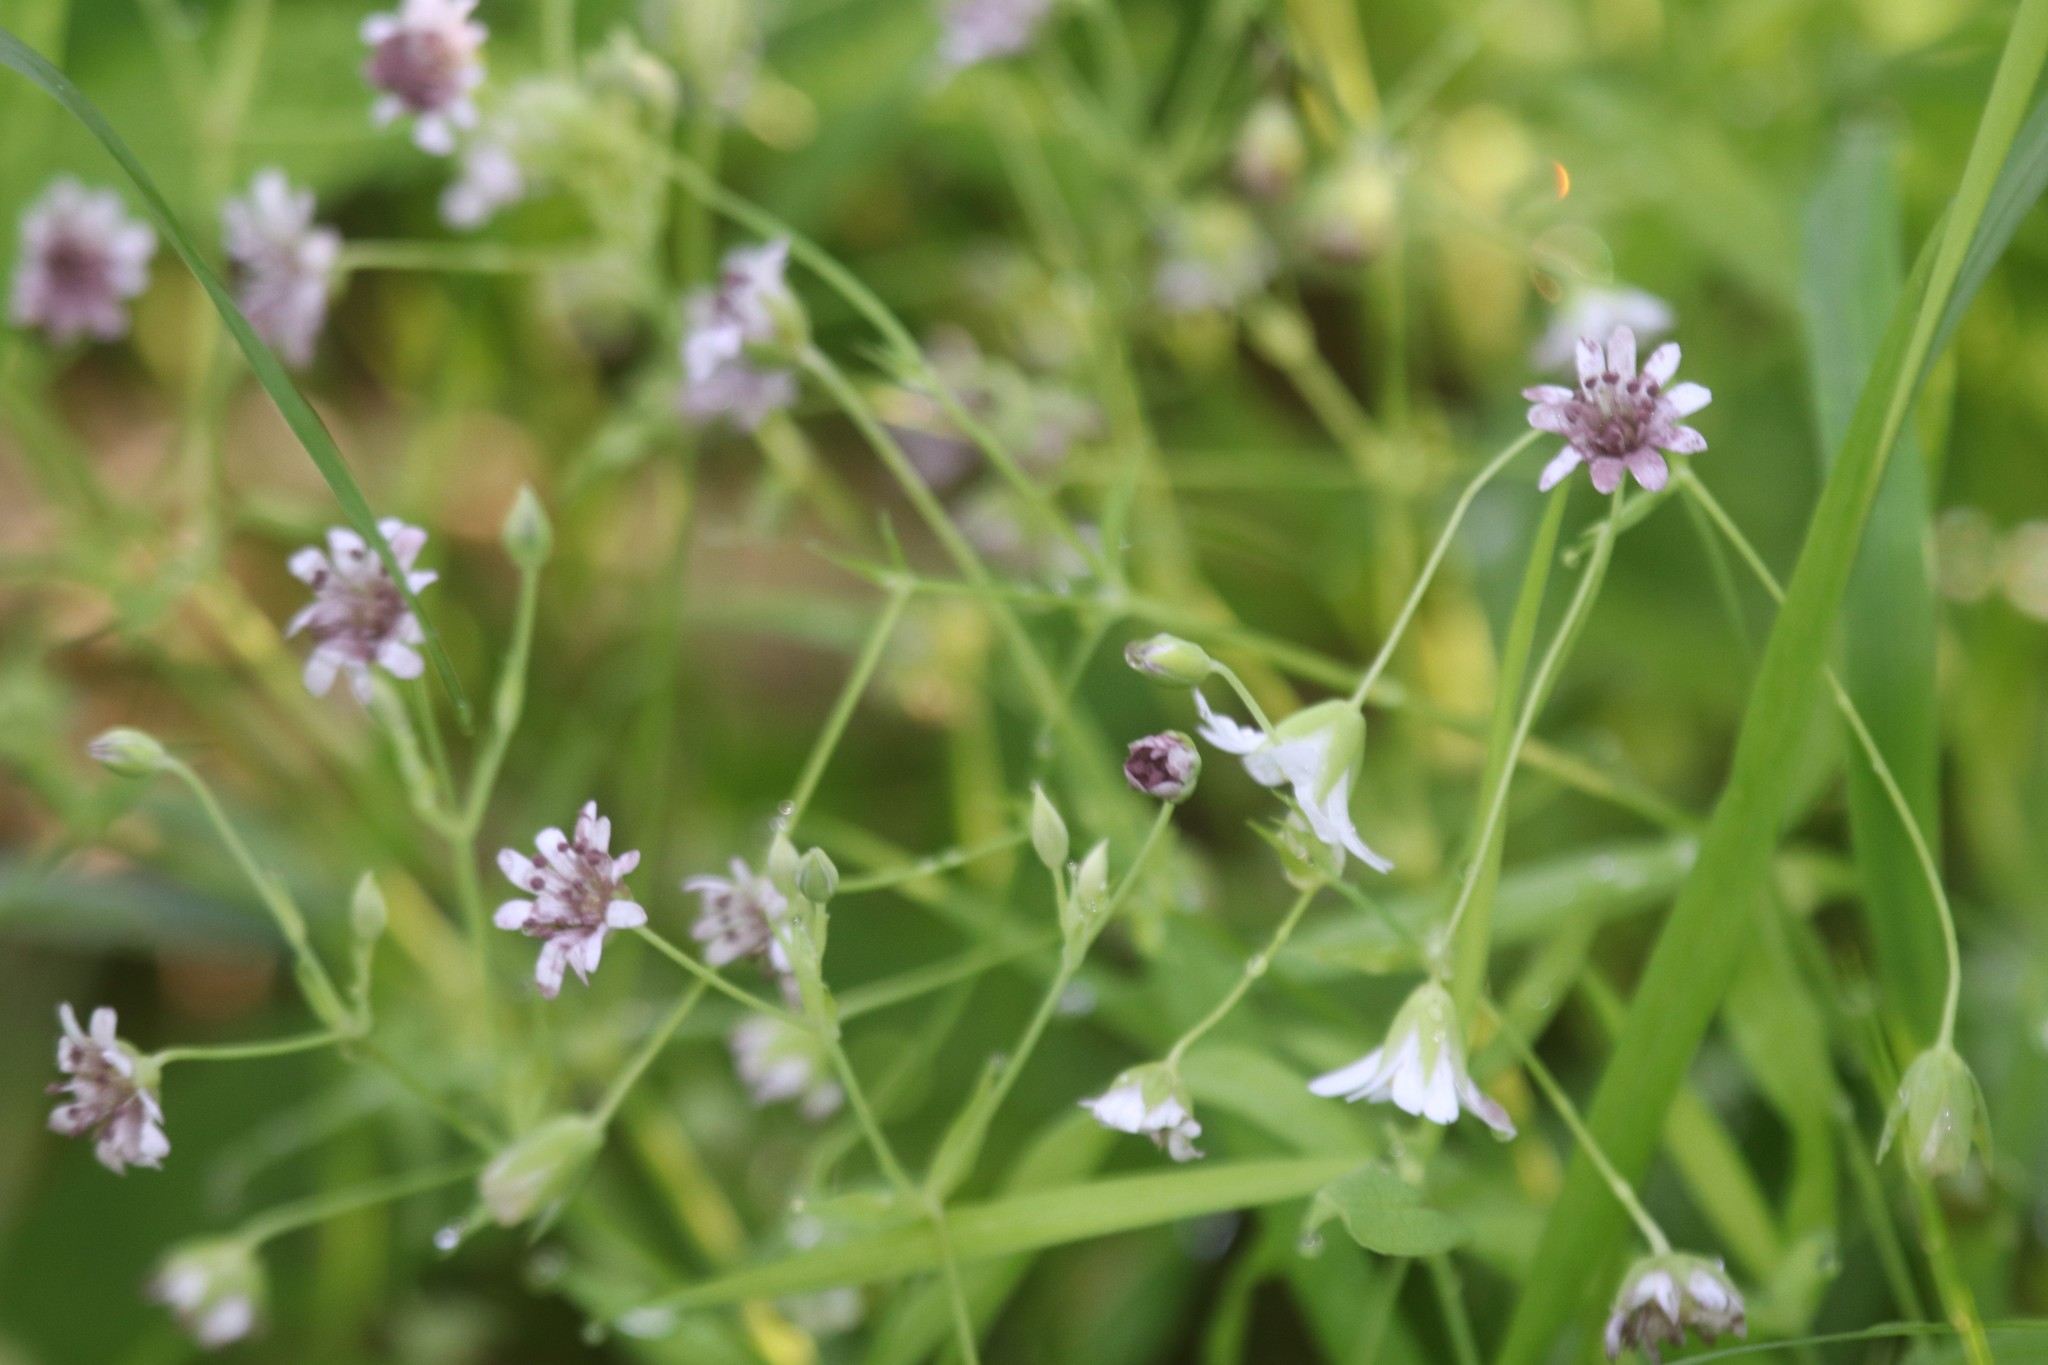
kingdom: Plantae
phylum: Tracheophyta
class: Magnoliopsida
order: Caryophyllales
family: Caryophyllaceae
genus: Rabelera
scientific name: Rabelera holostea
